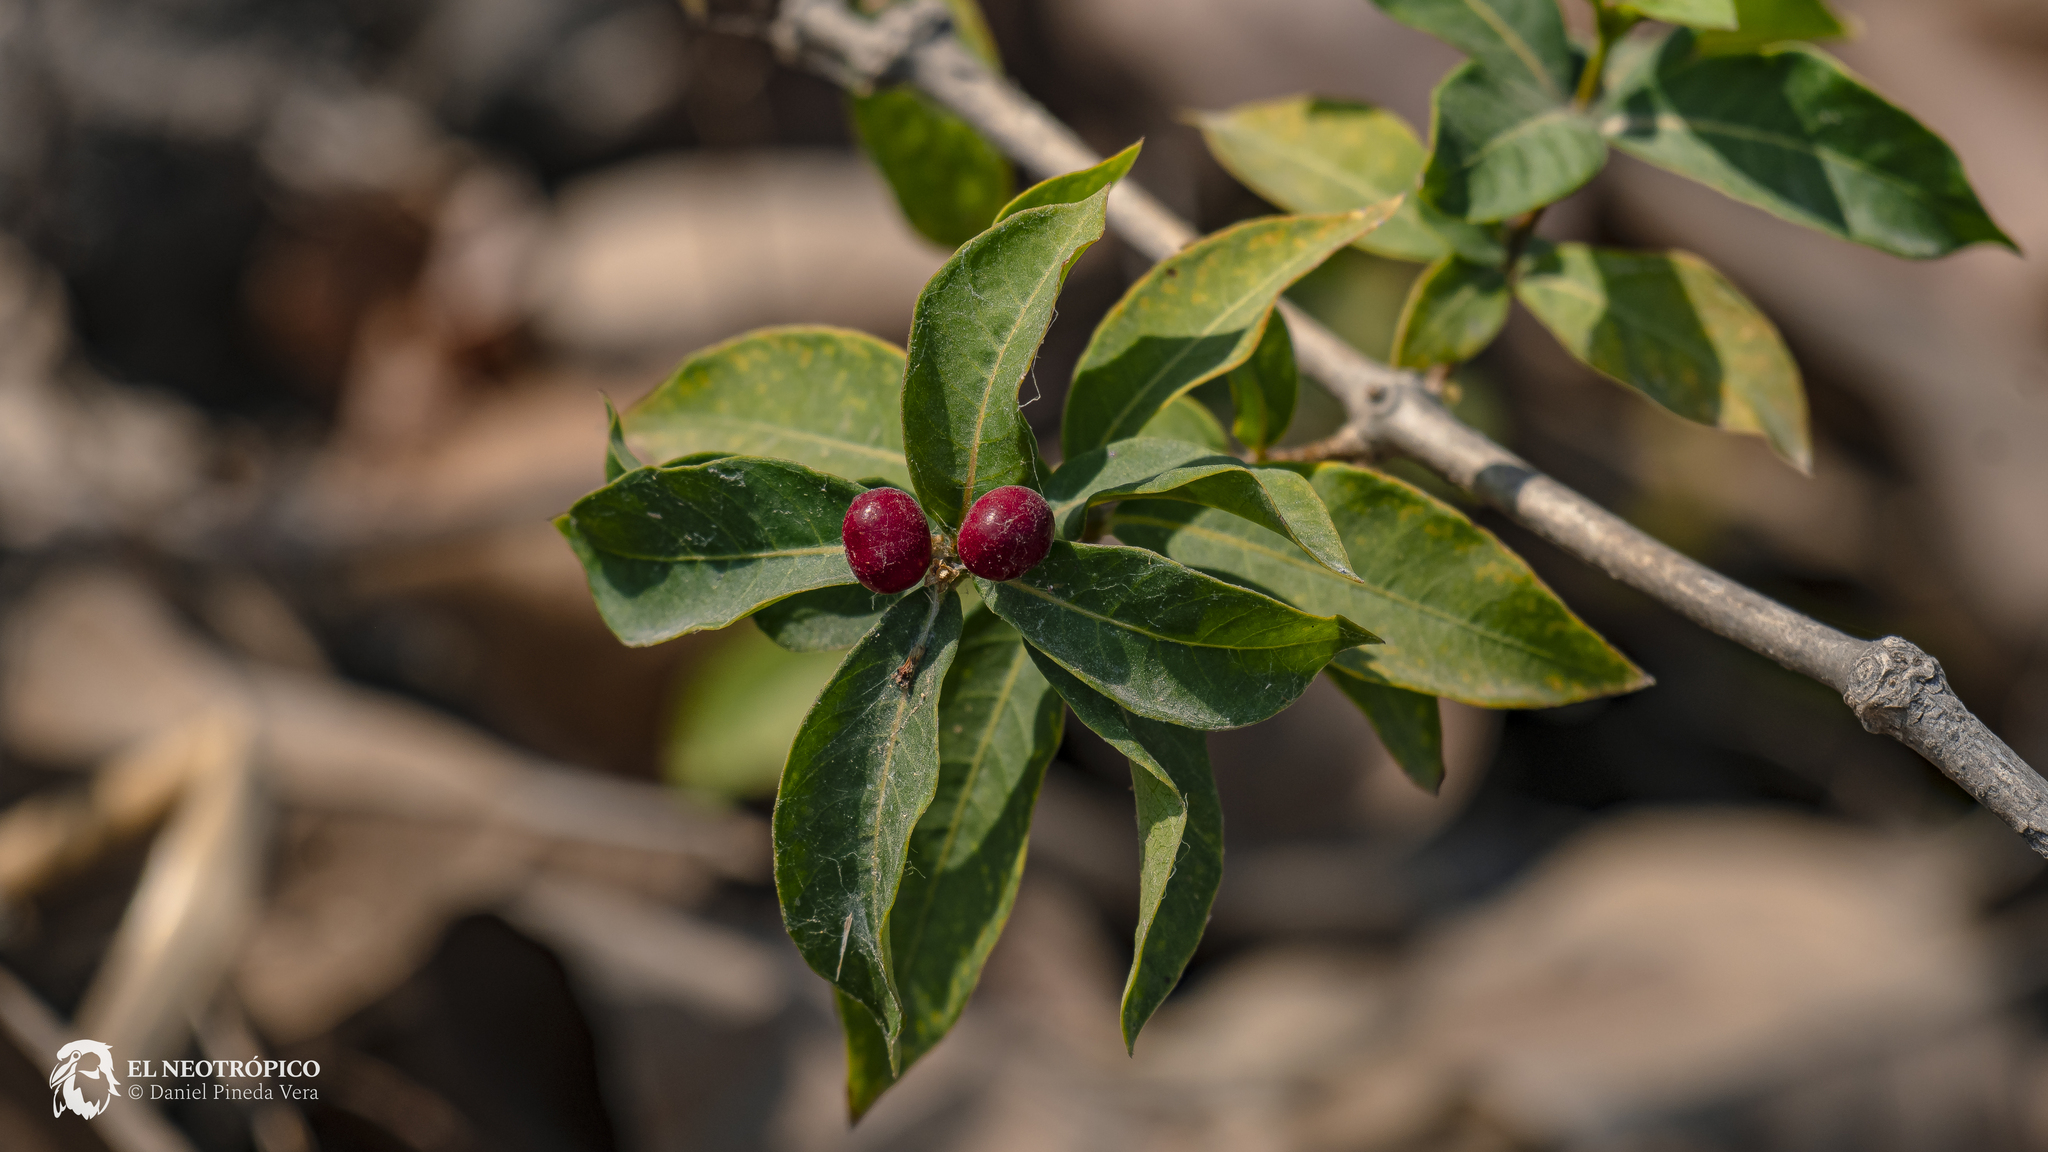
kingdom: Plantae
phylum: Tracheophyta
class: Magnoliopsida
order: Gentianales
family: Apocynaceae
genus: Rauvolfia
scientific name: Rauvolfia tetraphylla
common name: Four-leaf devil-pepper
